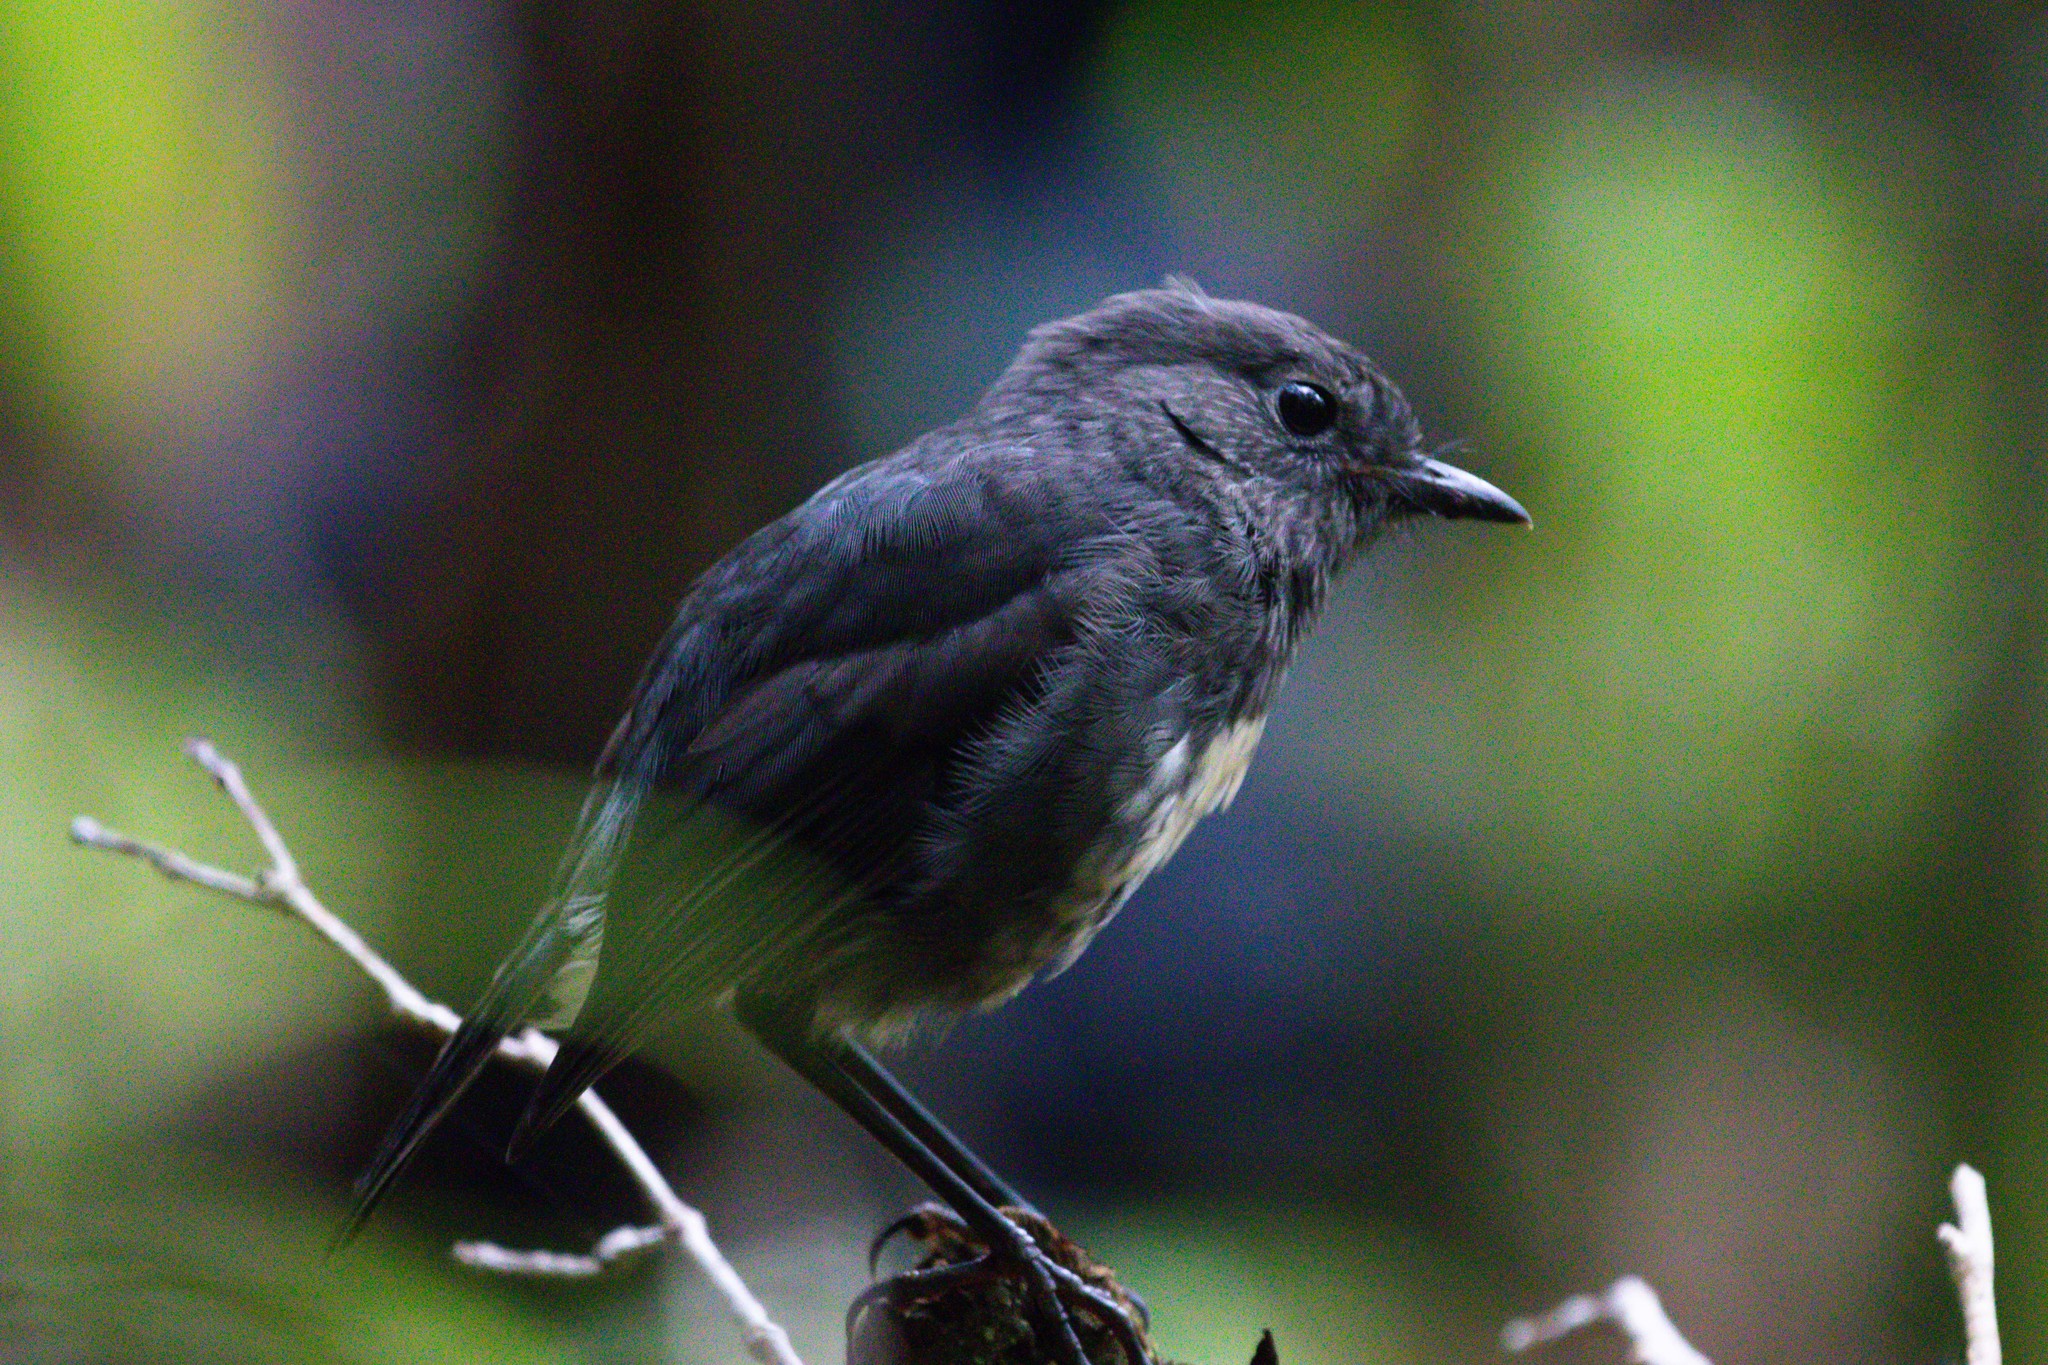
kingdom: Animalia
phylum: Chordata
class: Aves
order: Passeriformes
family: Petroicidae
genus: Petroica
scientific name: Petroica australis
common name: New zealand robin
